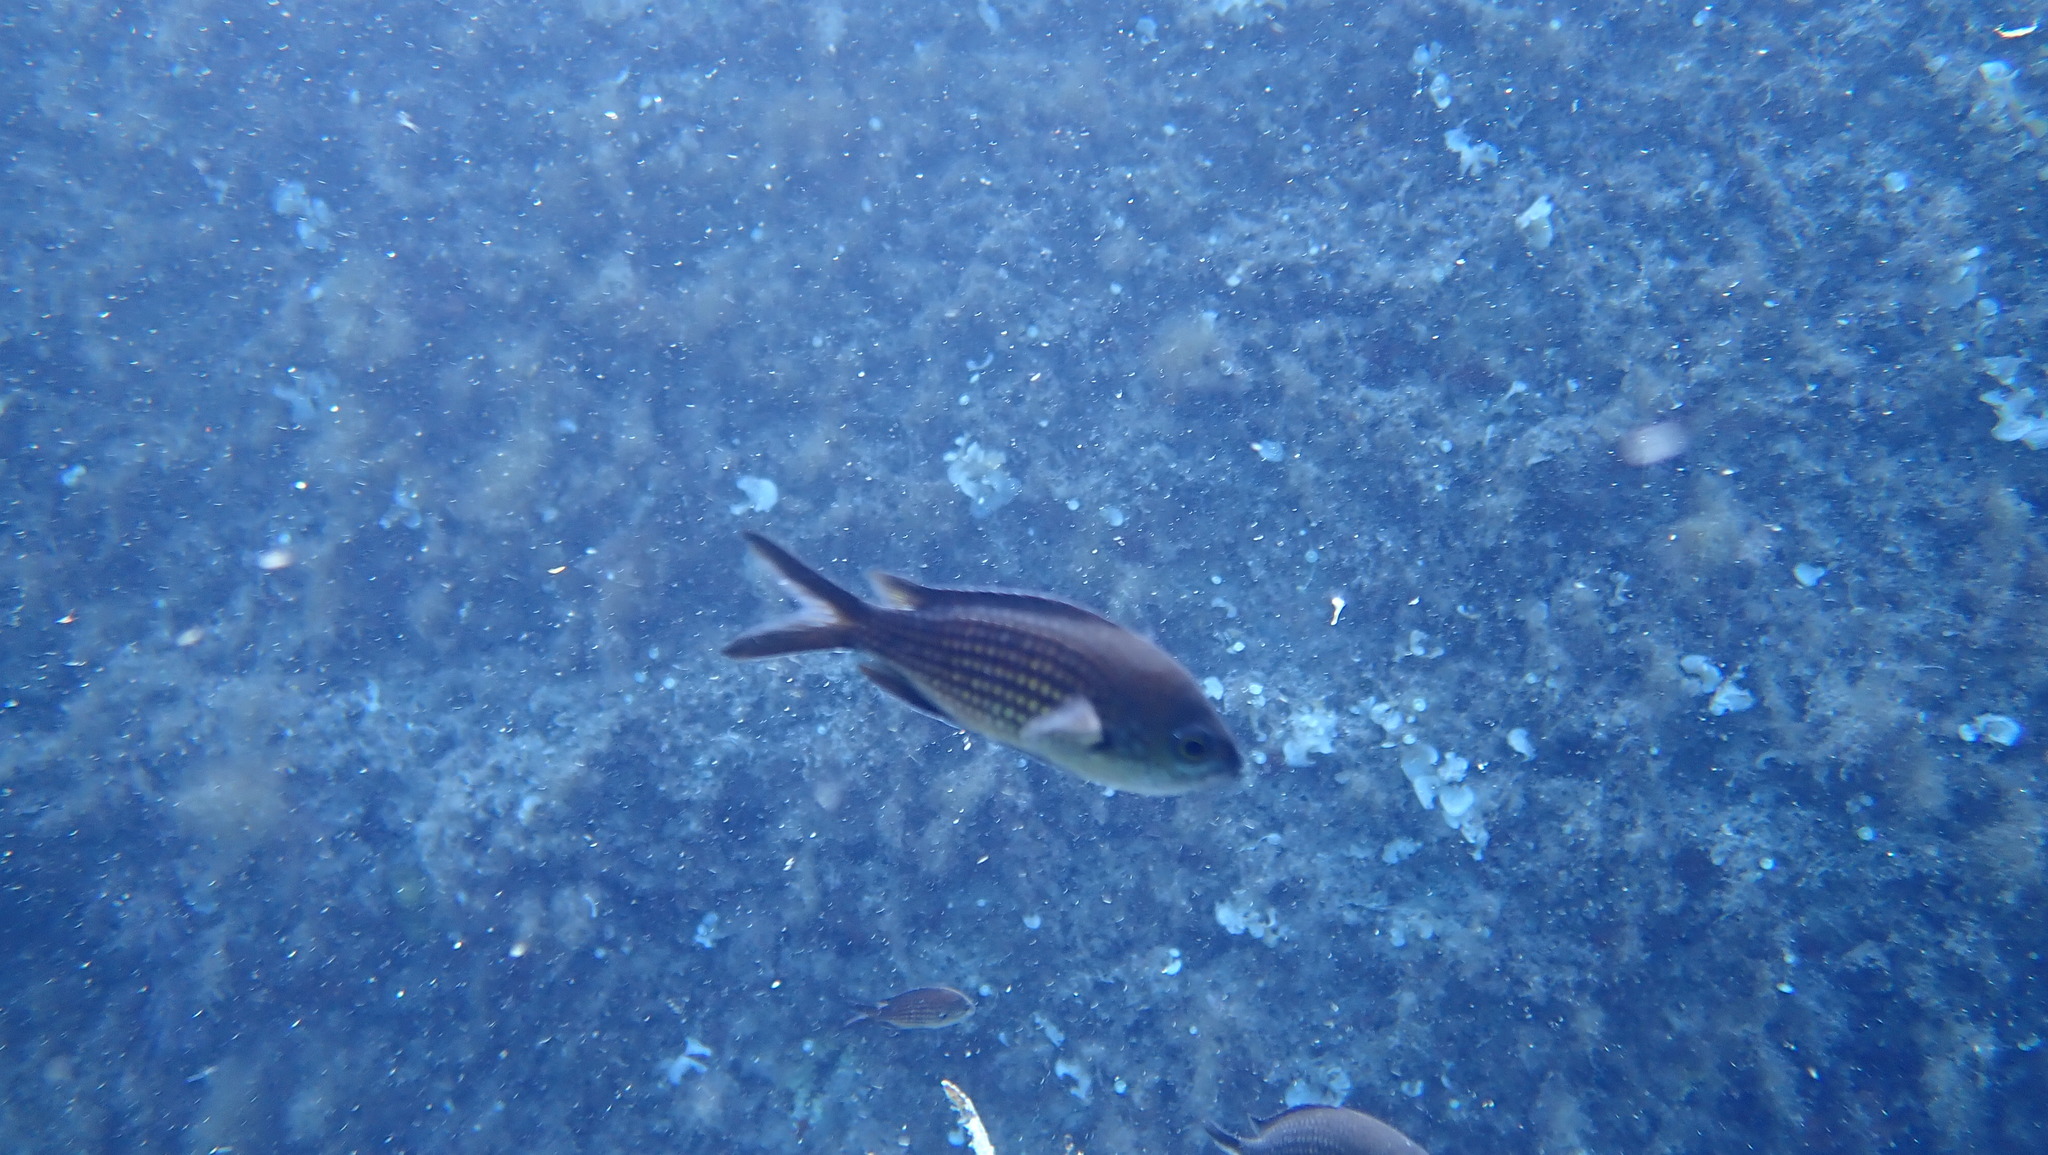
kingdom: Animalia
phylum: Chordata
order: Perciformes
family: Pomacentridae
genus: Chromis
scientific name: Chromis chromis
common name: Damselfish
